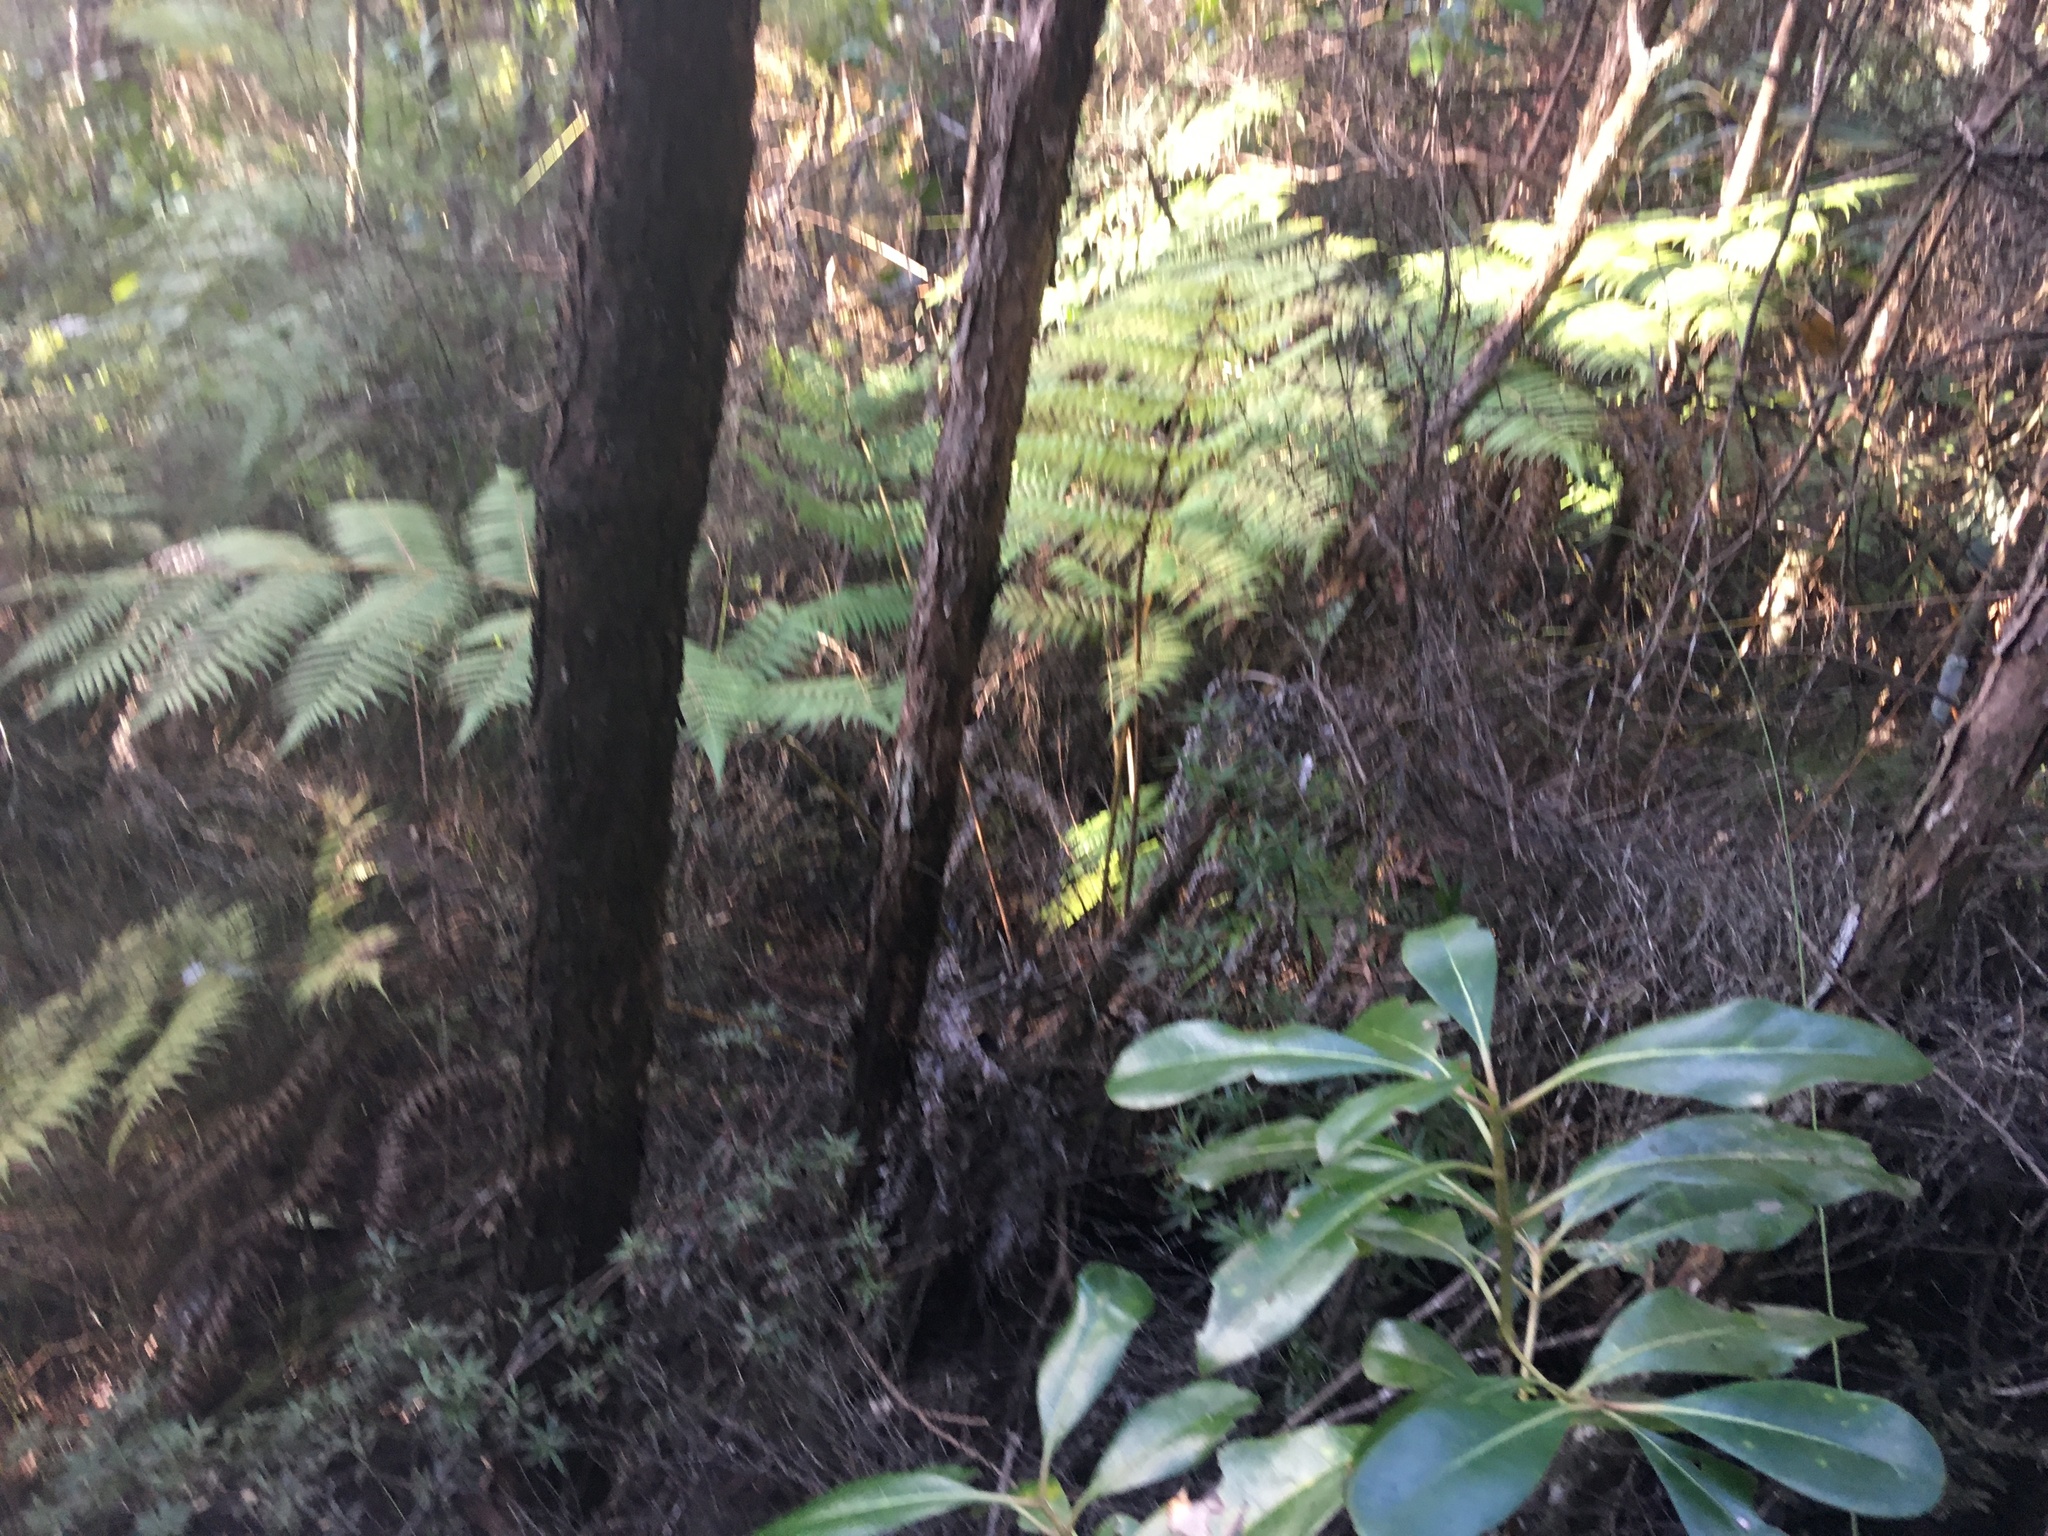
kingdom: Plantae
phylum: Tracheophyta
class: Magnoliopsida
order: Gentianales
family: Rubiaceae
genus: Coprosma
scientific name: Coprosma lucida
